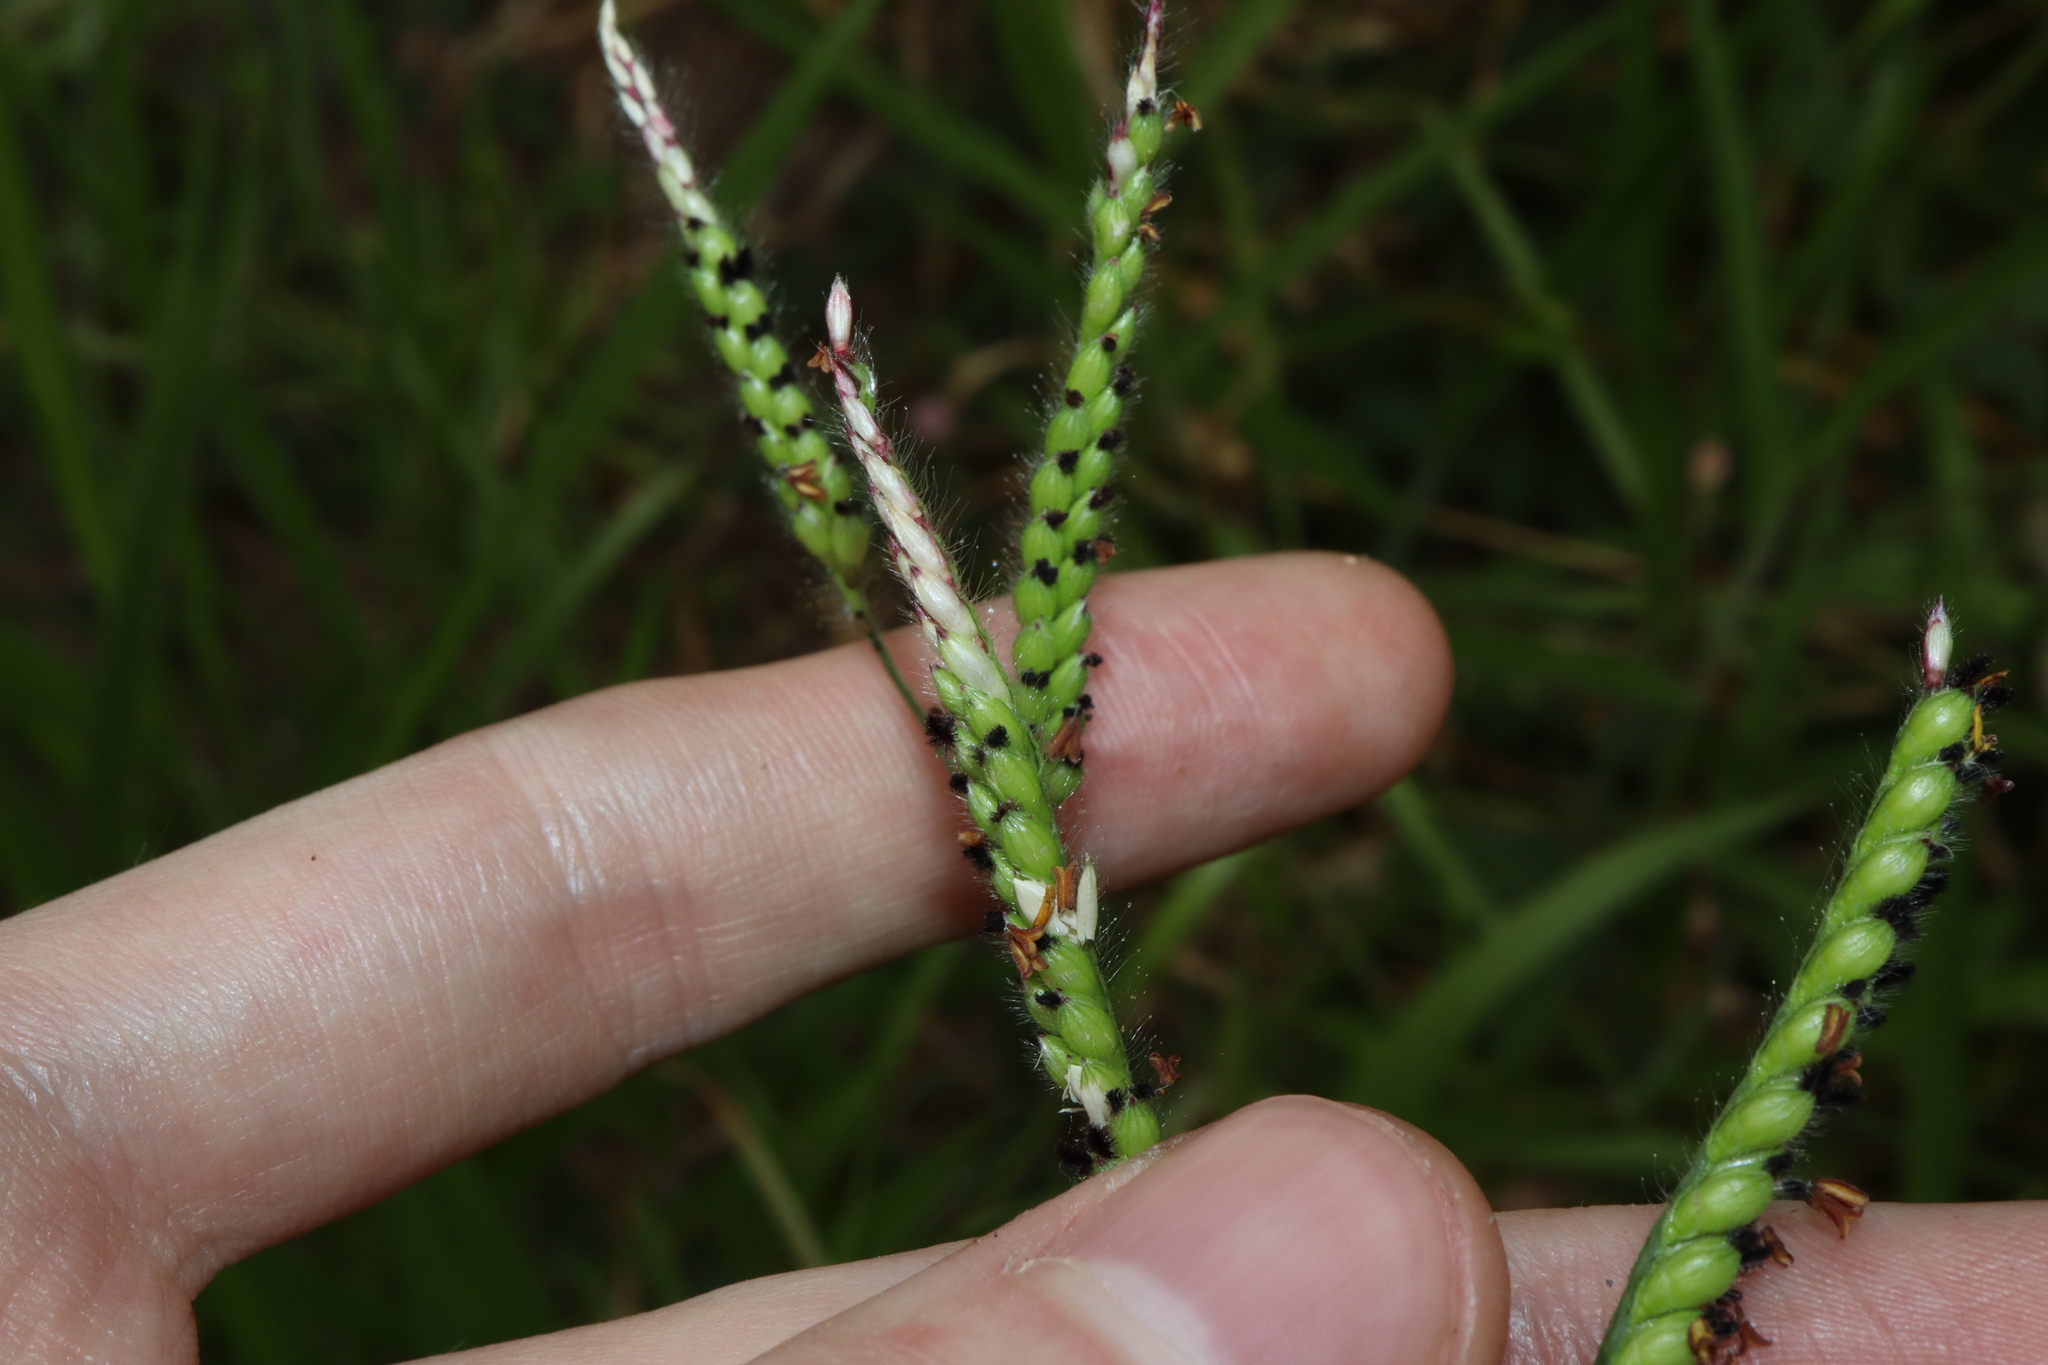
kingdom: Plantae
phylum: Tracheophyta
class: Liliopsida
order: Poales
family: Poaceae
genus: Urochloa
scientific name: Urochloa eminii
